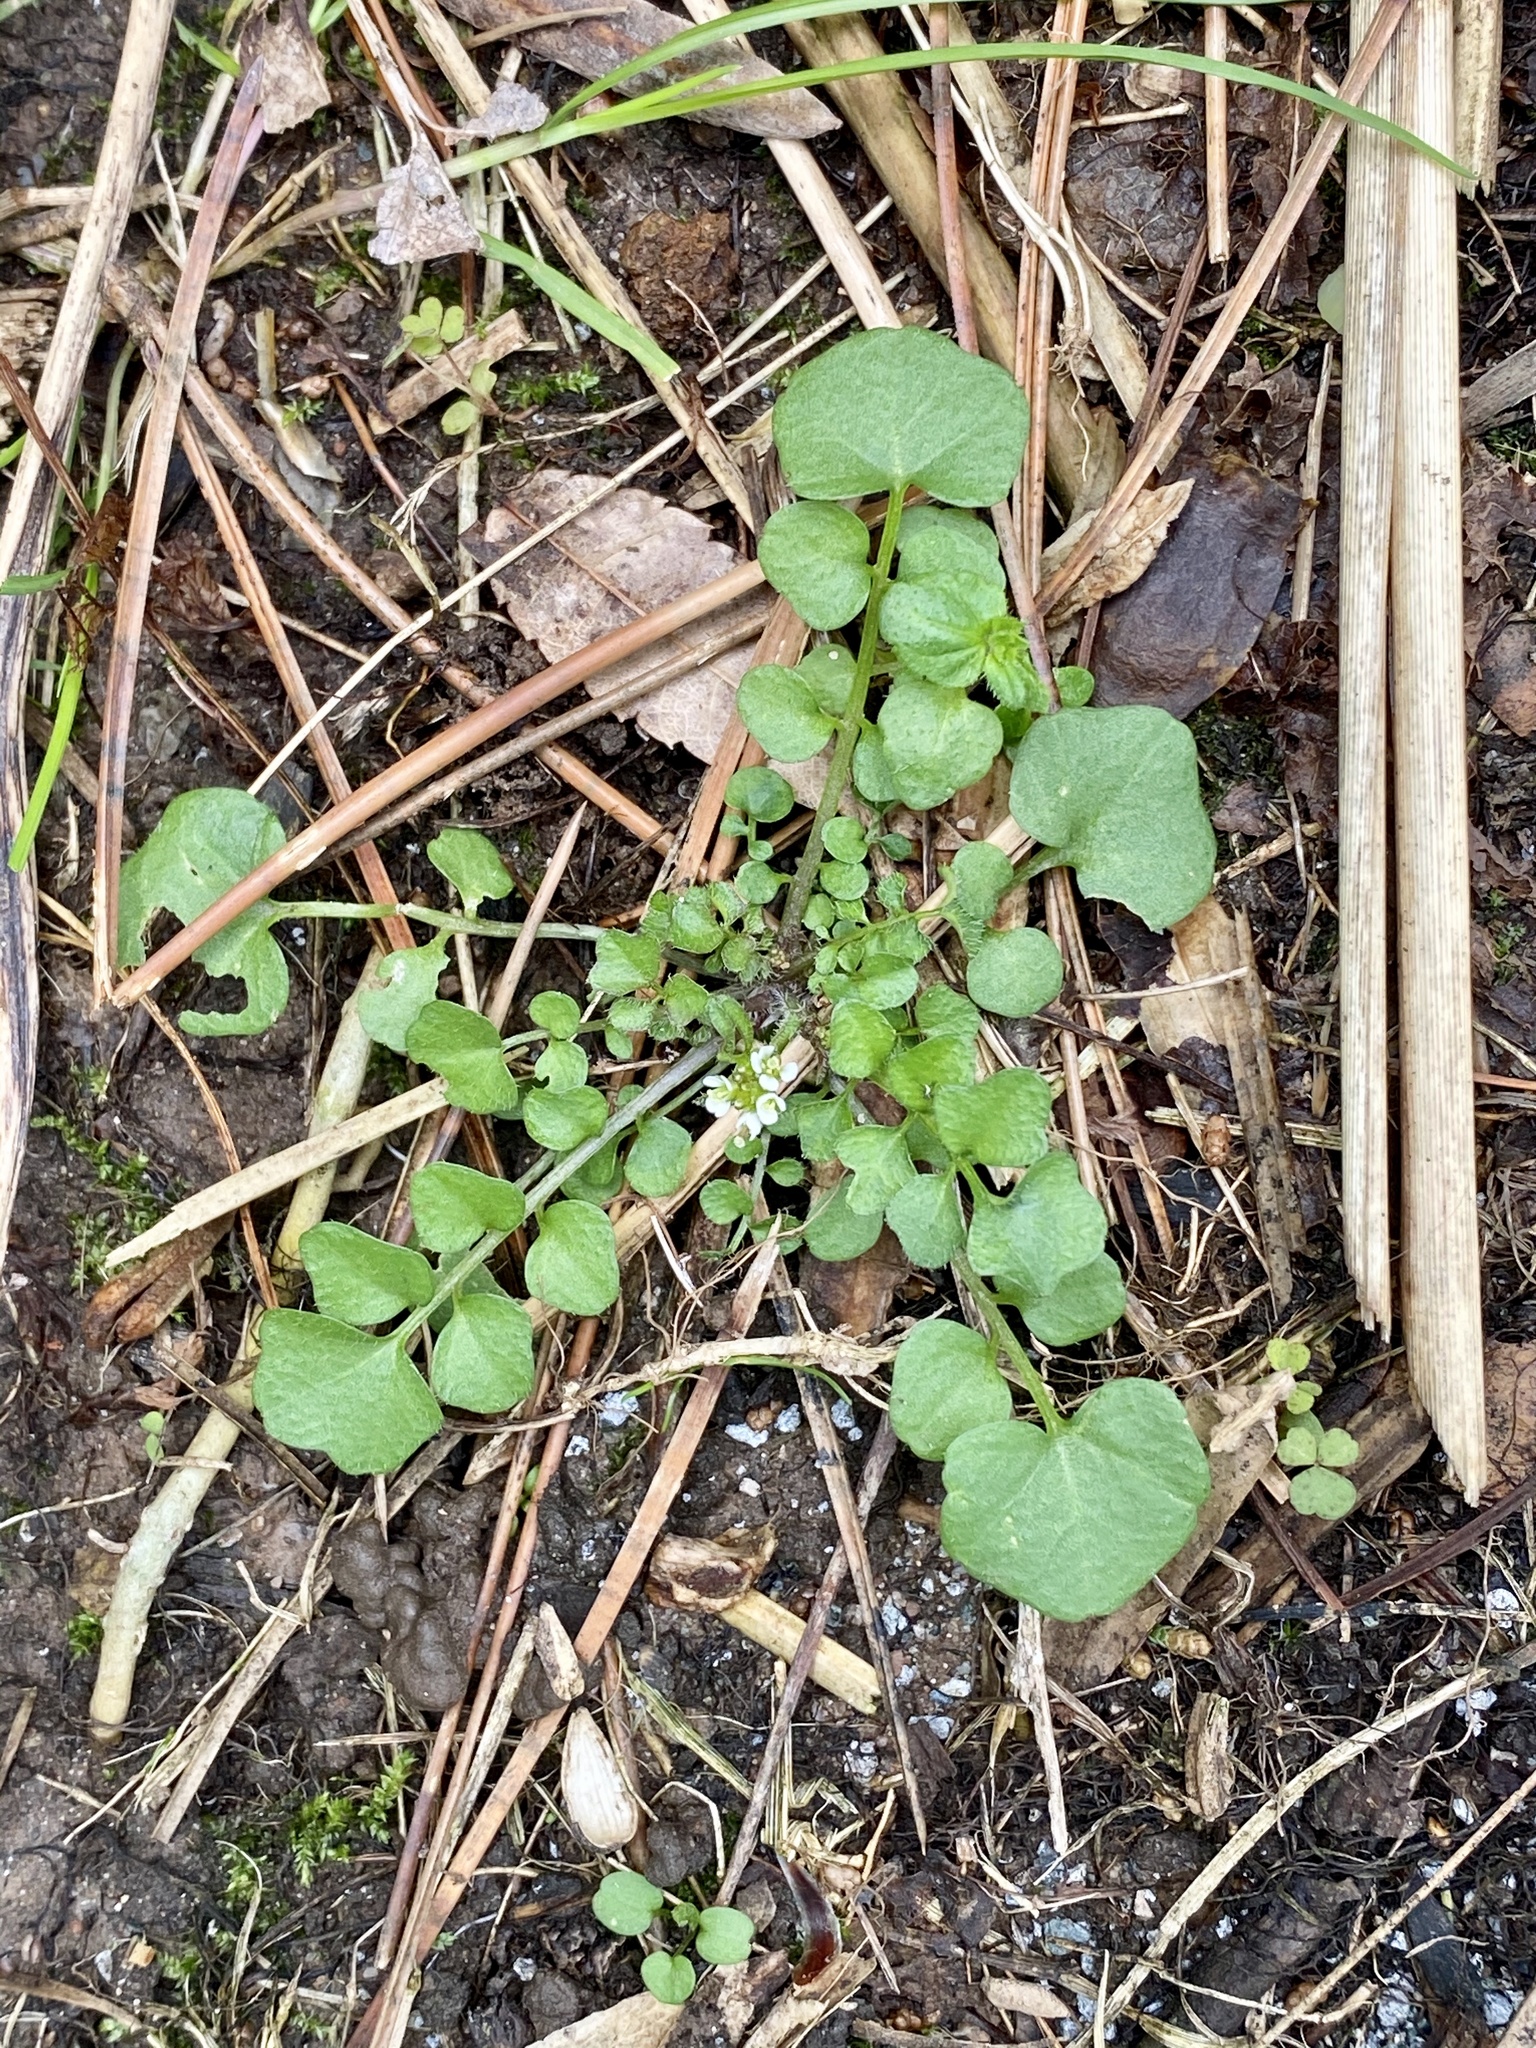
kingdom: Plantae
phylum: Tracheophyta
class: Magnoliopsida
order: Brassicales
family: Brassicaceae
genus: Cardamine
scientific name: Cardamine hirsuta
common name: Hairy bittercress
